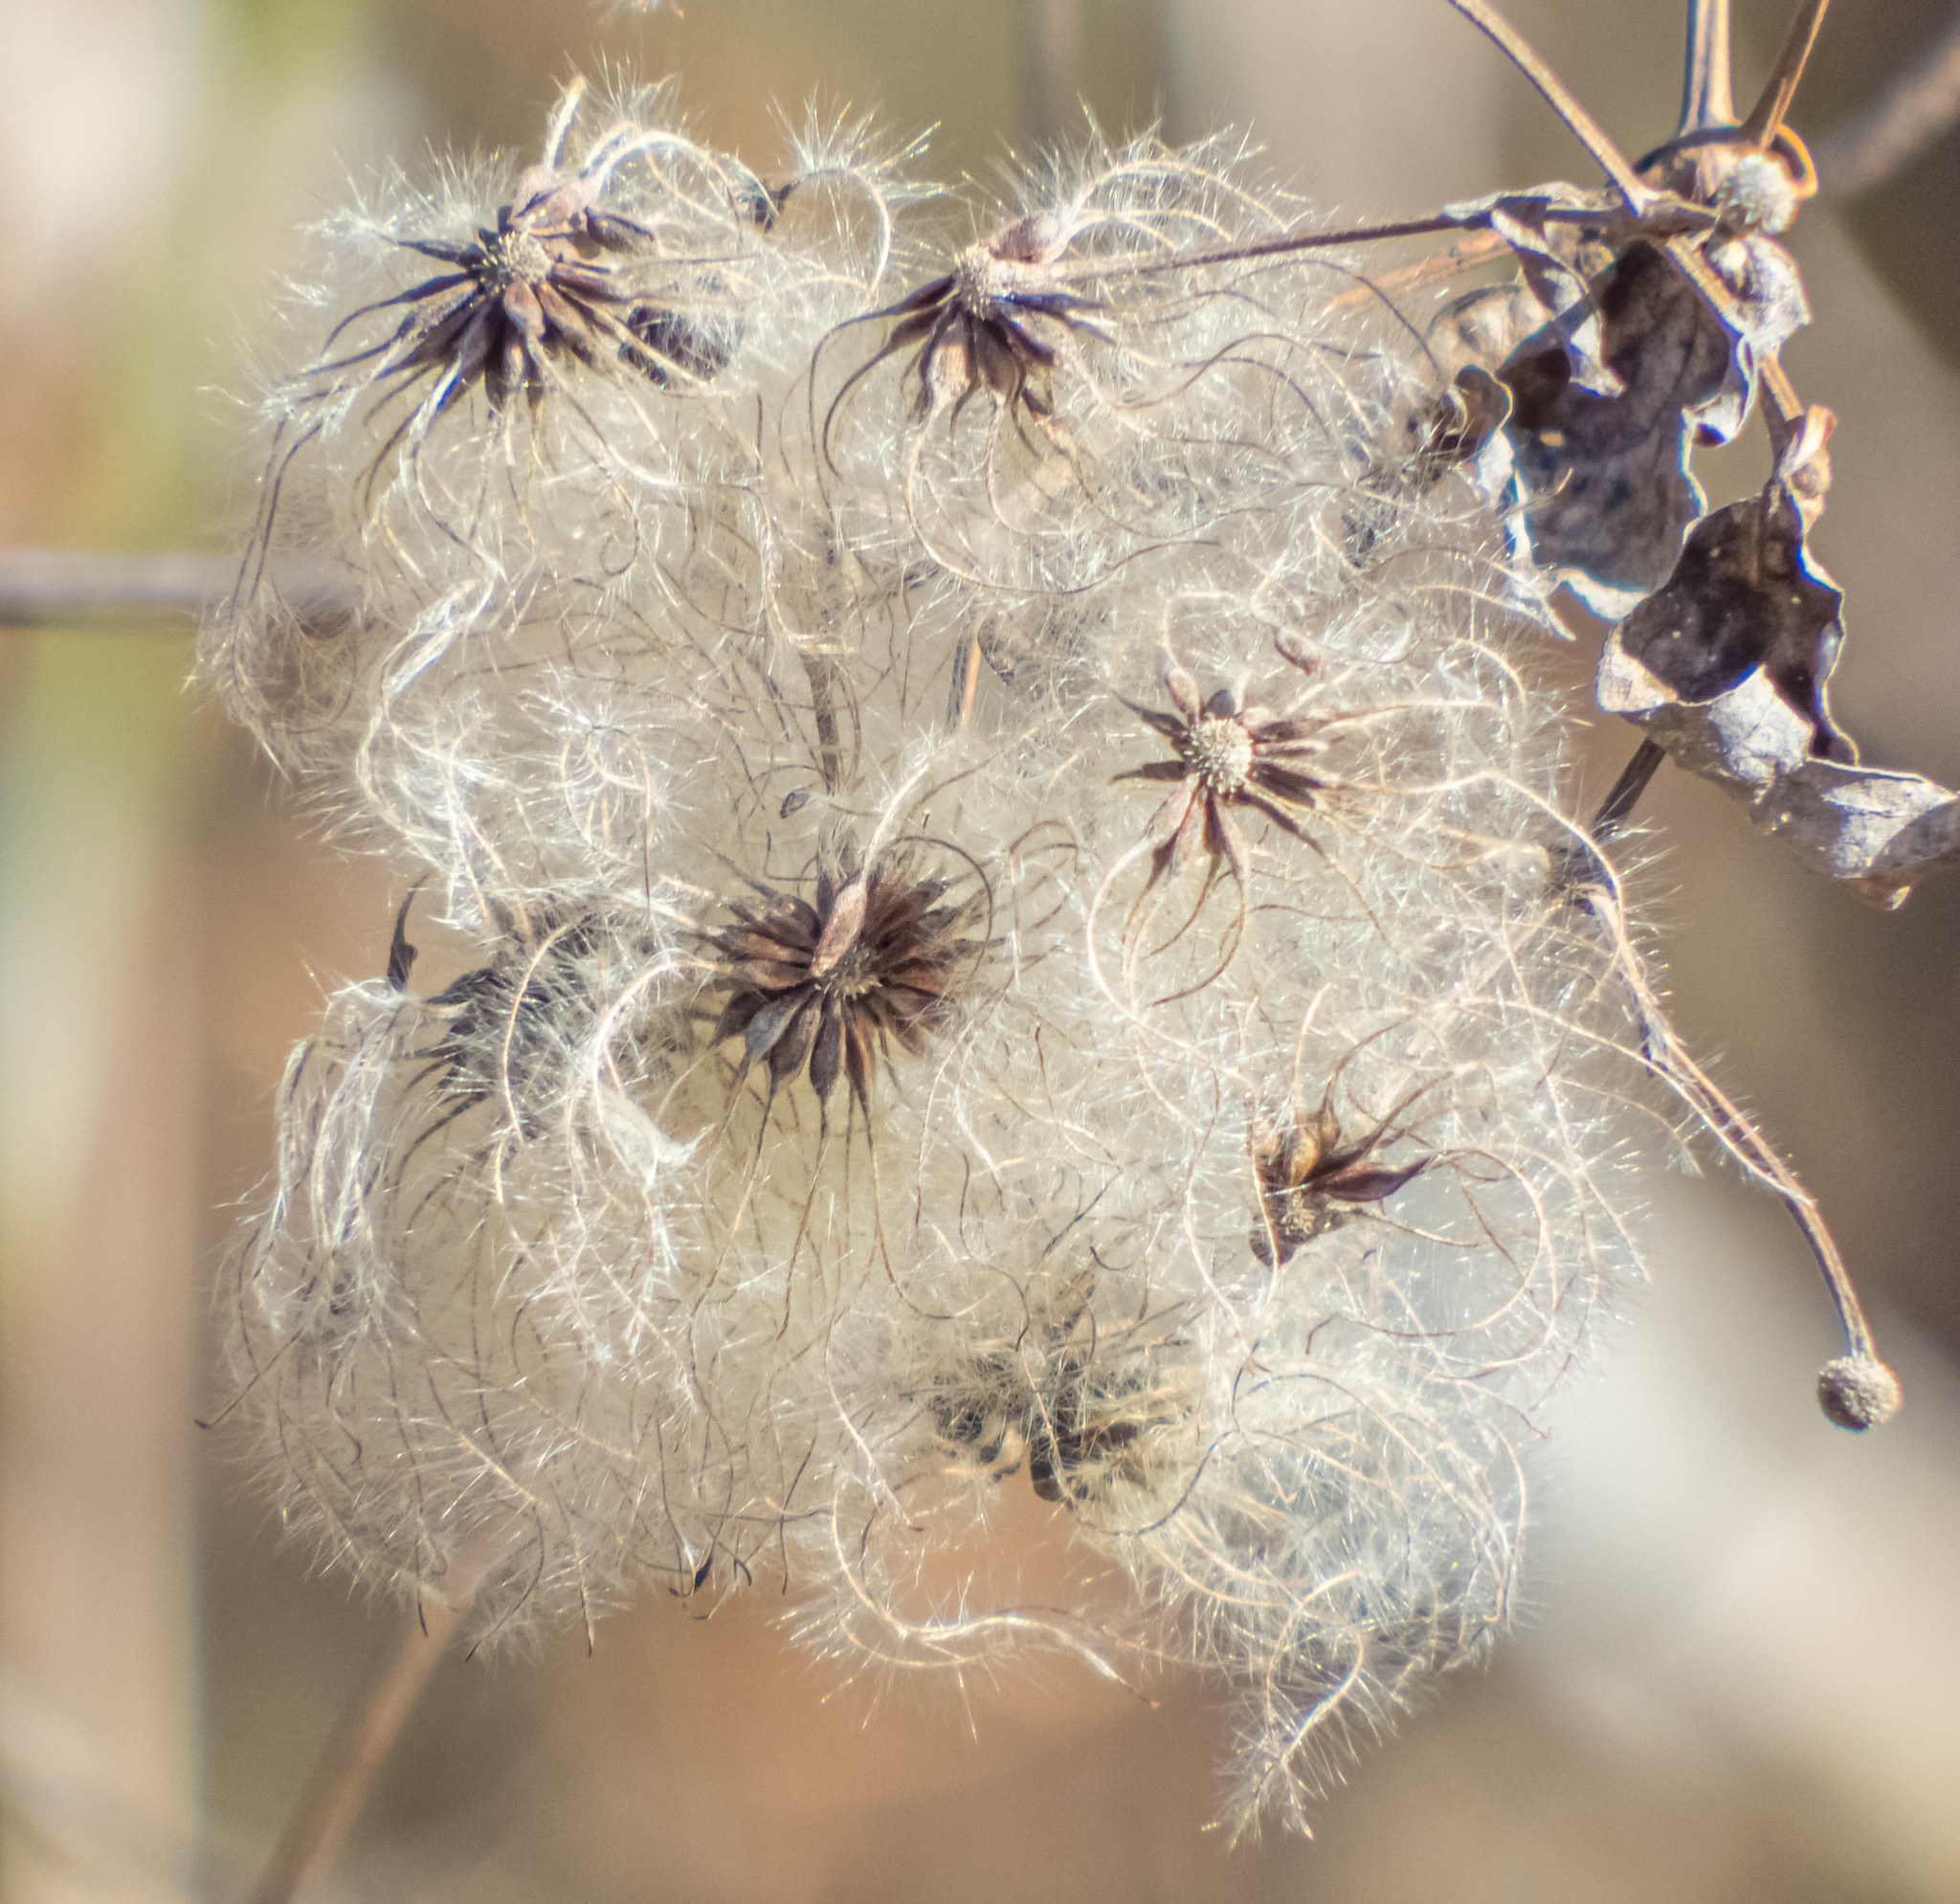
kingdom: Plantae
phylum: Tracheophyta
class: Magnoliopsida
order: Ranunculales
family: Ranunculaceae
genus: Clematis
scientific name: Clematis terniflora
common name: Sweet autumn clematis
